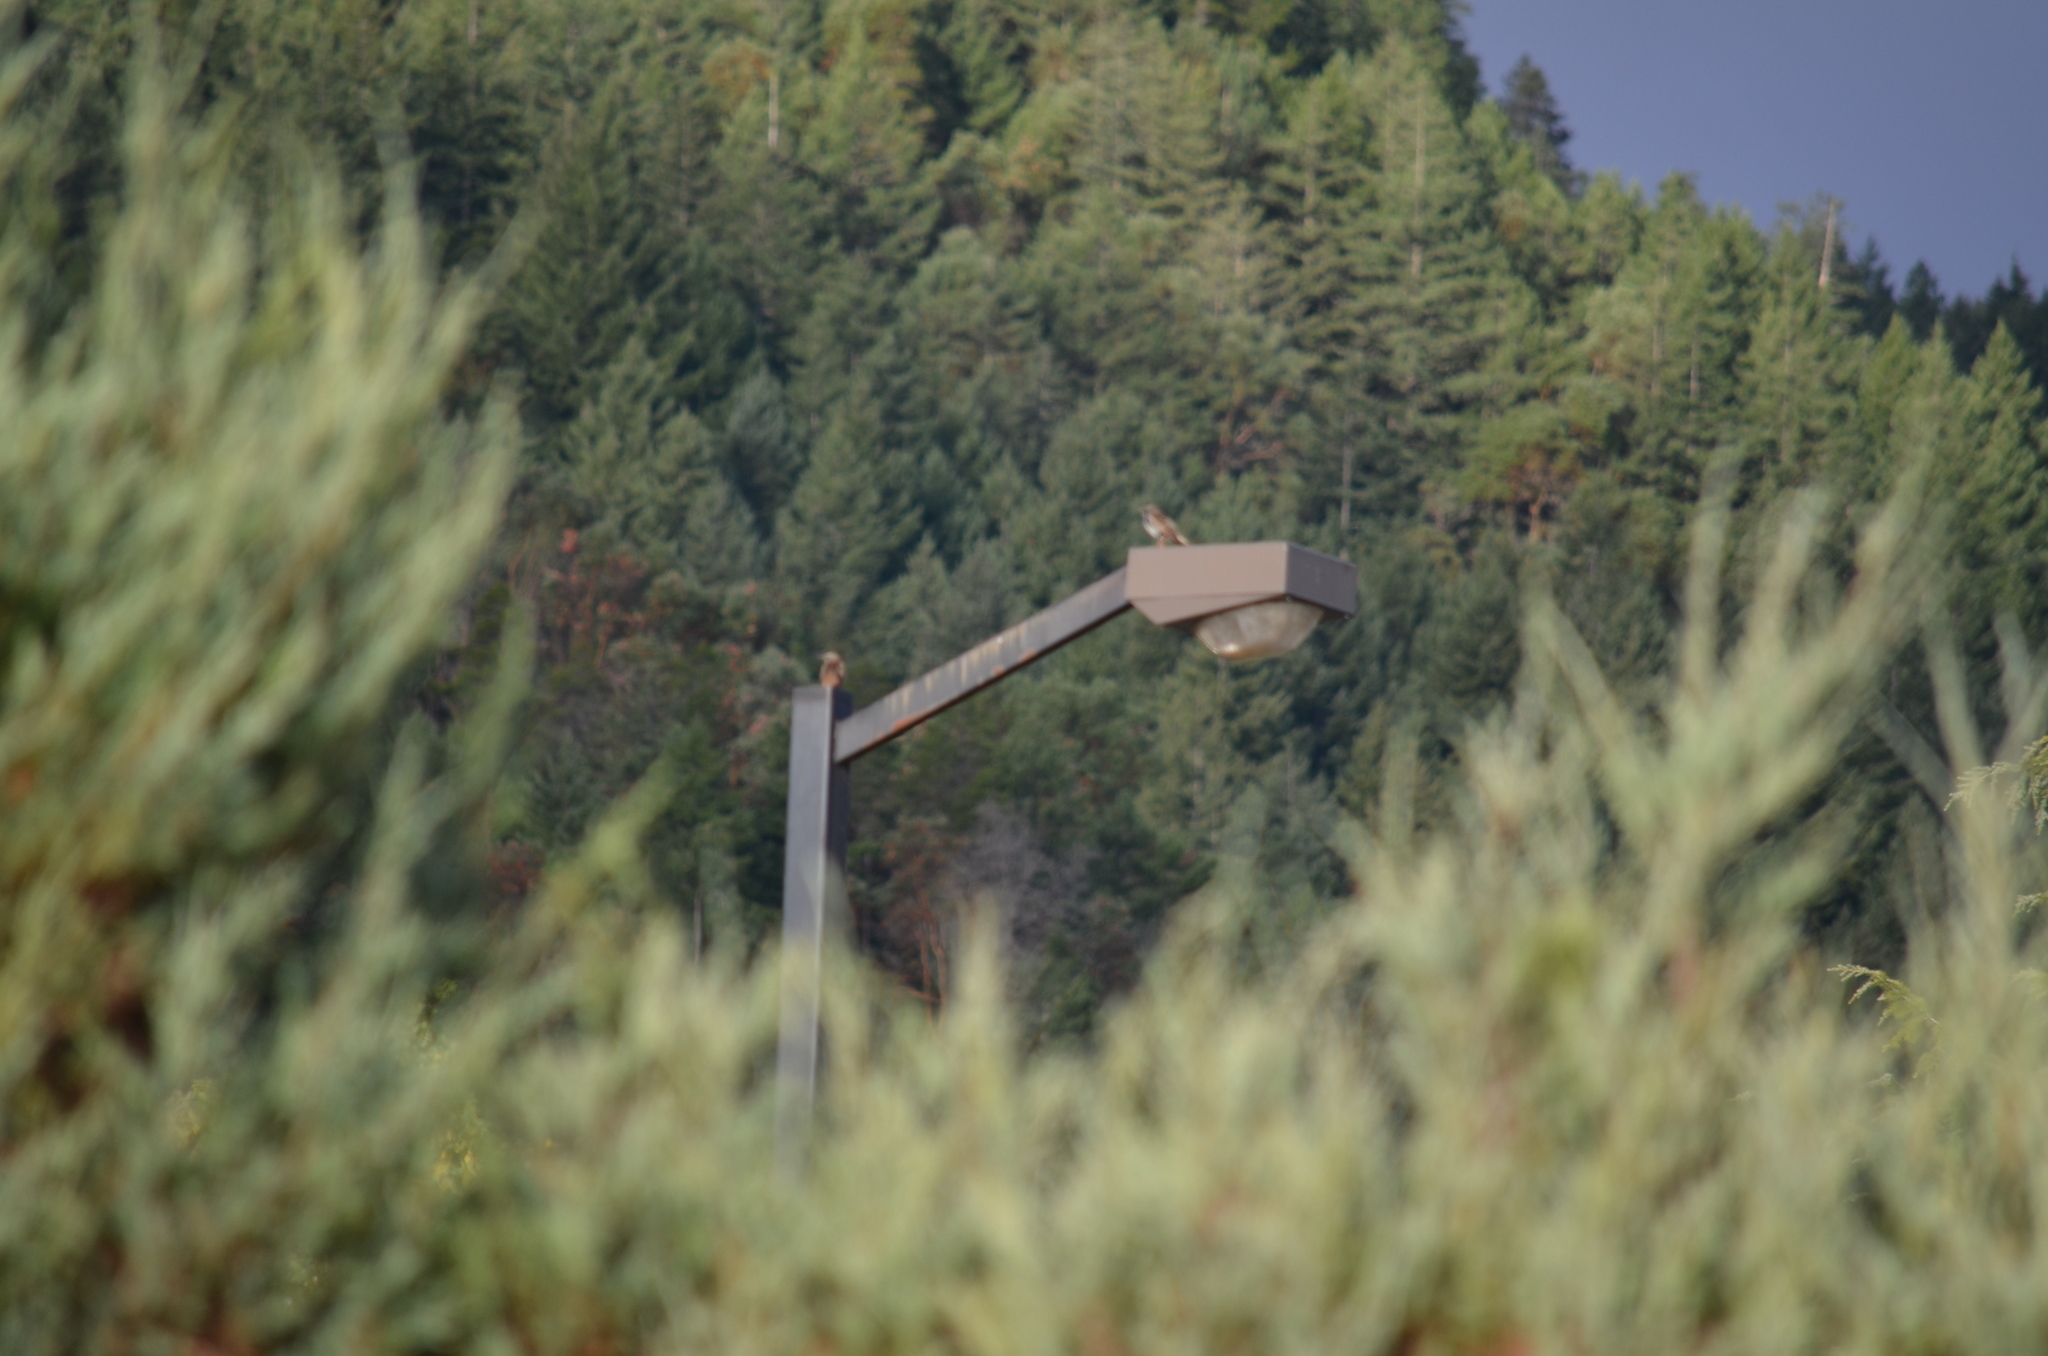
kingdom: Animalia
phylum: Chordata
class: Aves
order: Passeriformes
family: Sturnidae
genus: Sturnus
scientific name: Sturnus vulgaris
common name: Common starling
